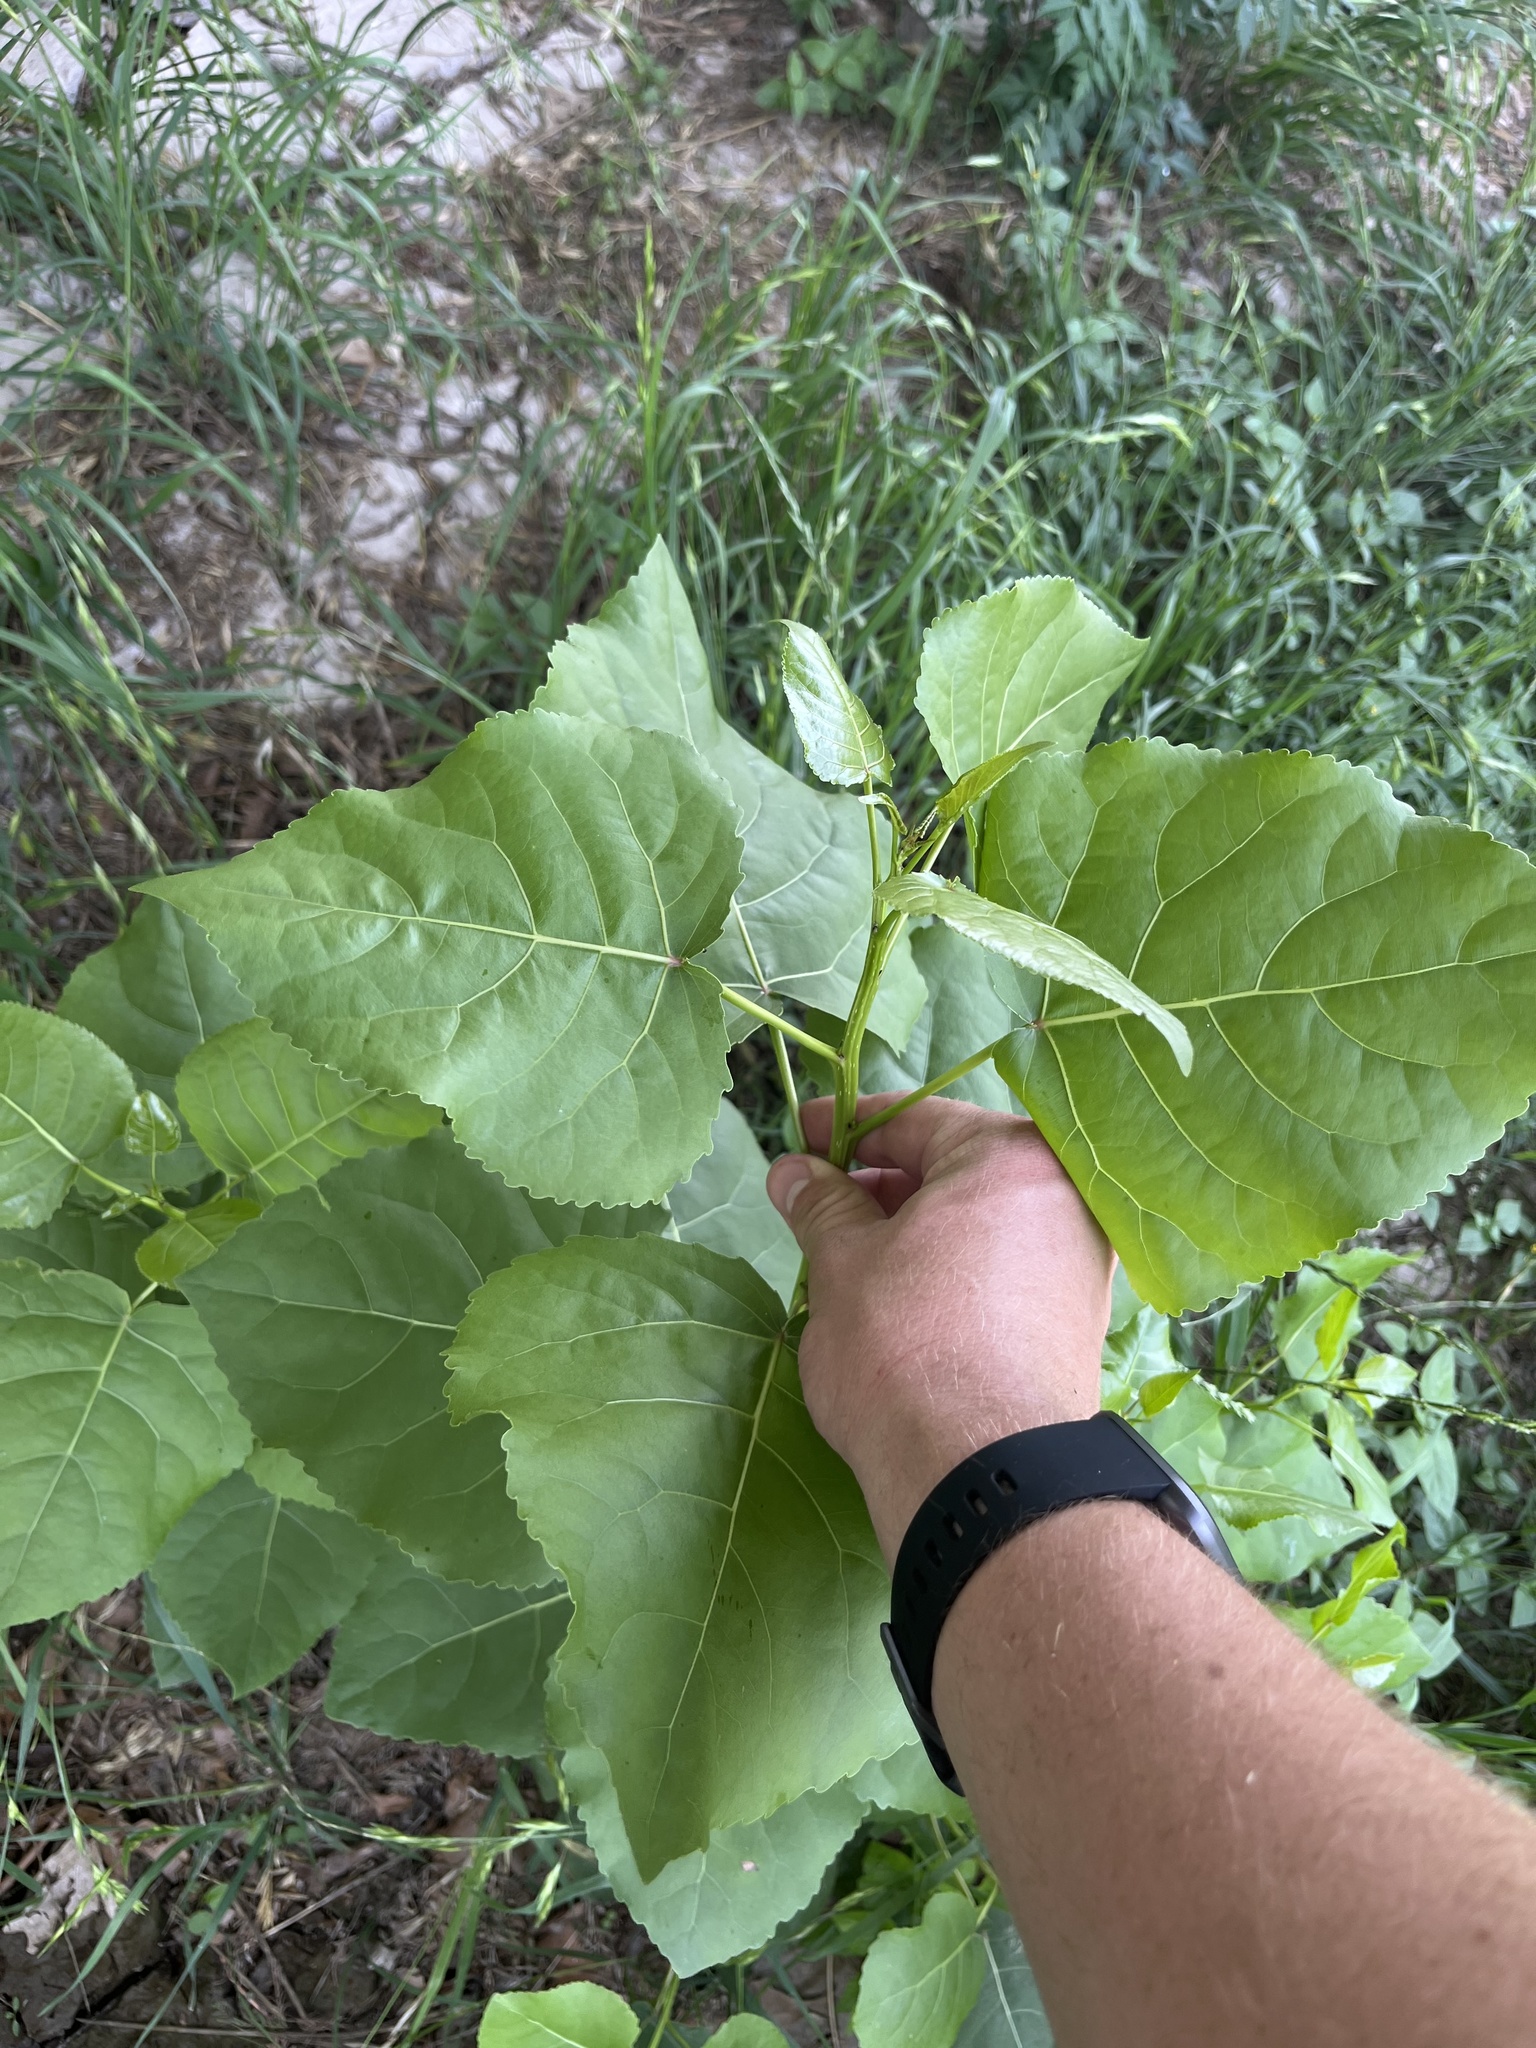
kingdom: Plantae
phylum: Tracheophyta
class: Magnoliopsida
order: Malpighiales
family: Salicaceae
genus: Populus
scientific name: Populus deltoides
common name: Eastern cottonwood
